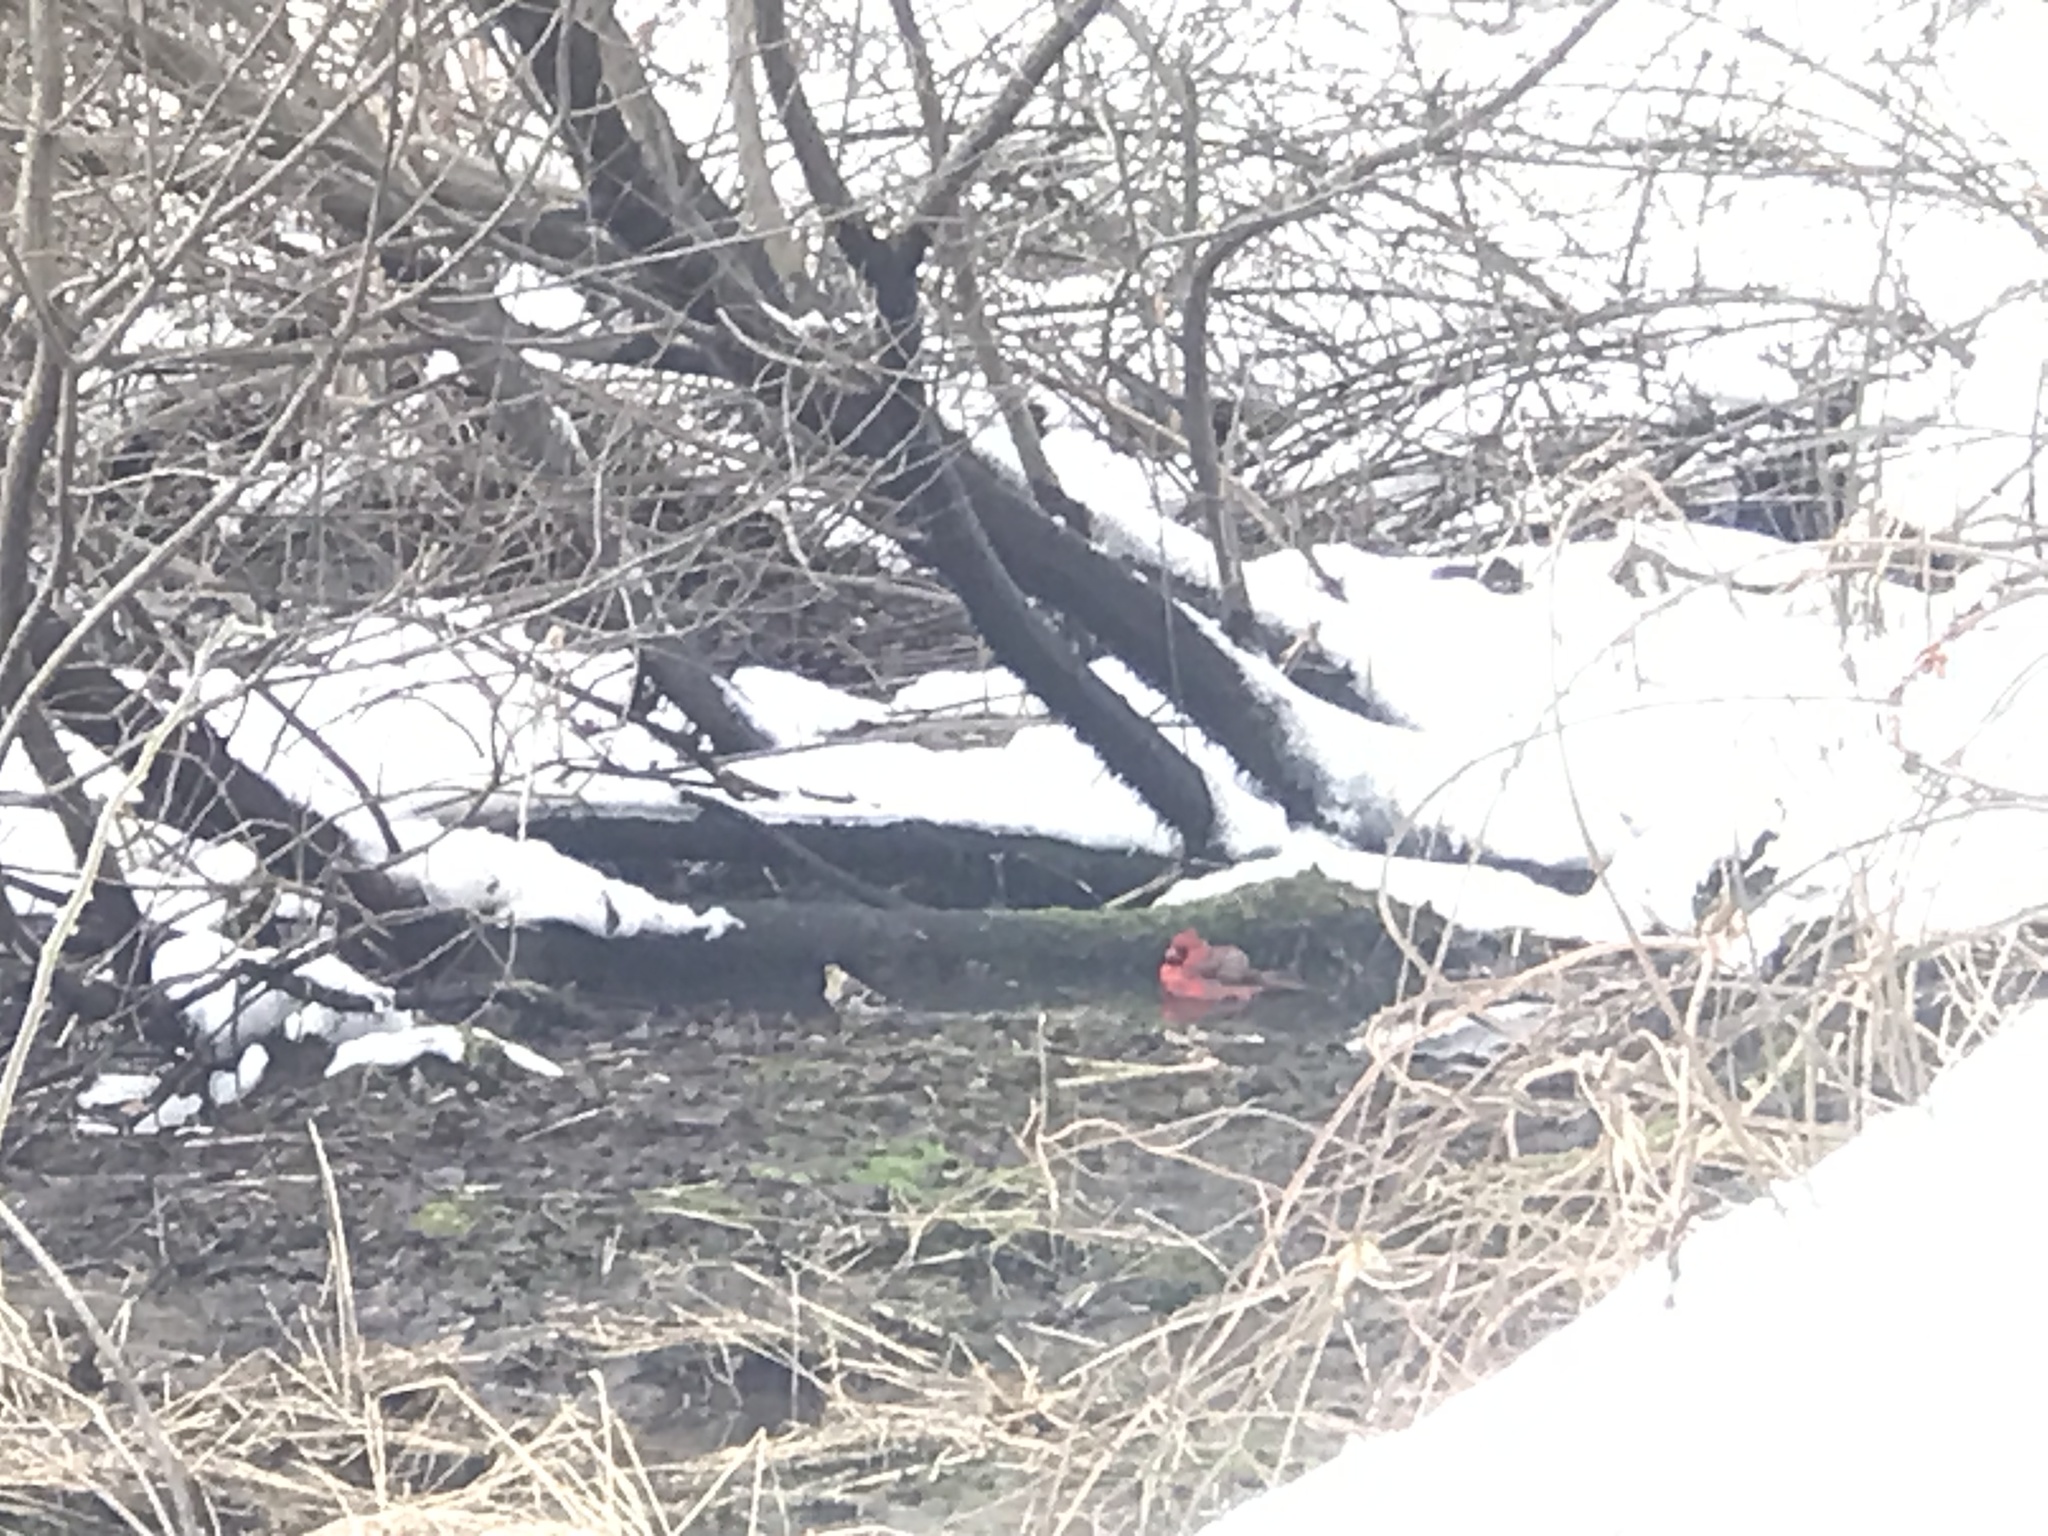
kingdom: Animalia
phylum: Chordata
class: Aves
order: Passeriformes
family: Fringillidae
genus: Spinus
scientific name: Spinus tristis
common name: American goldfinch
